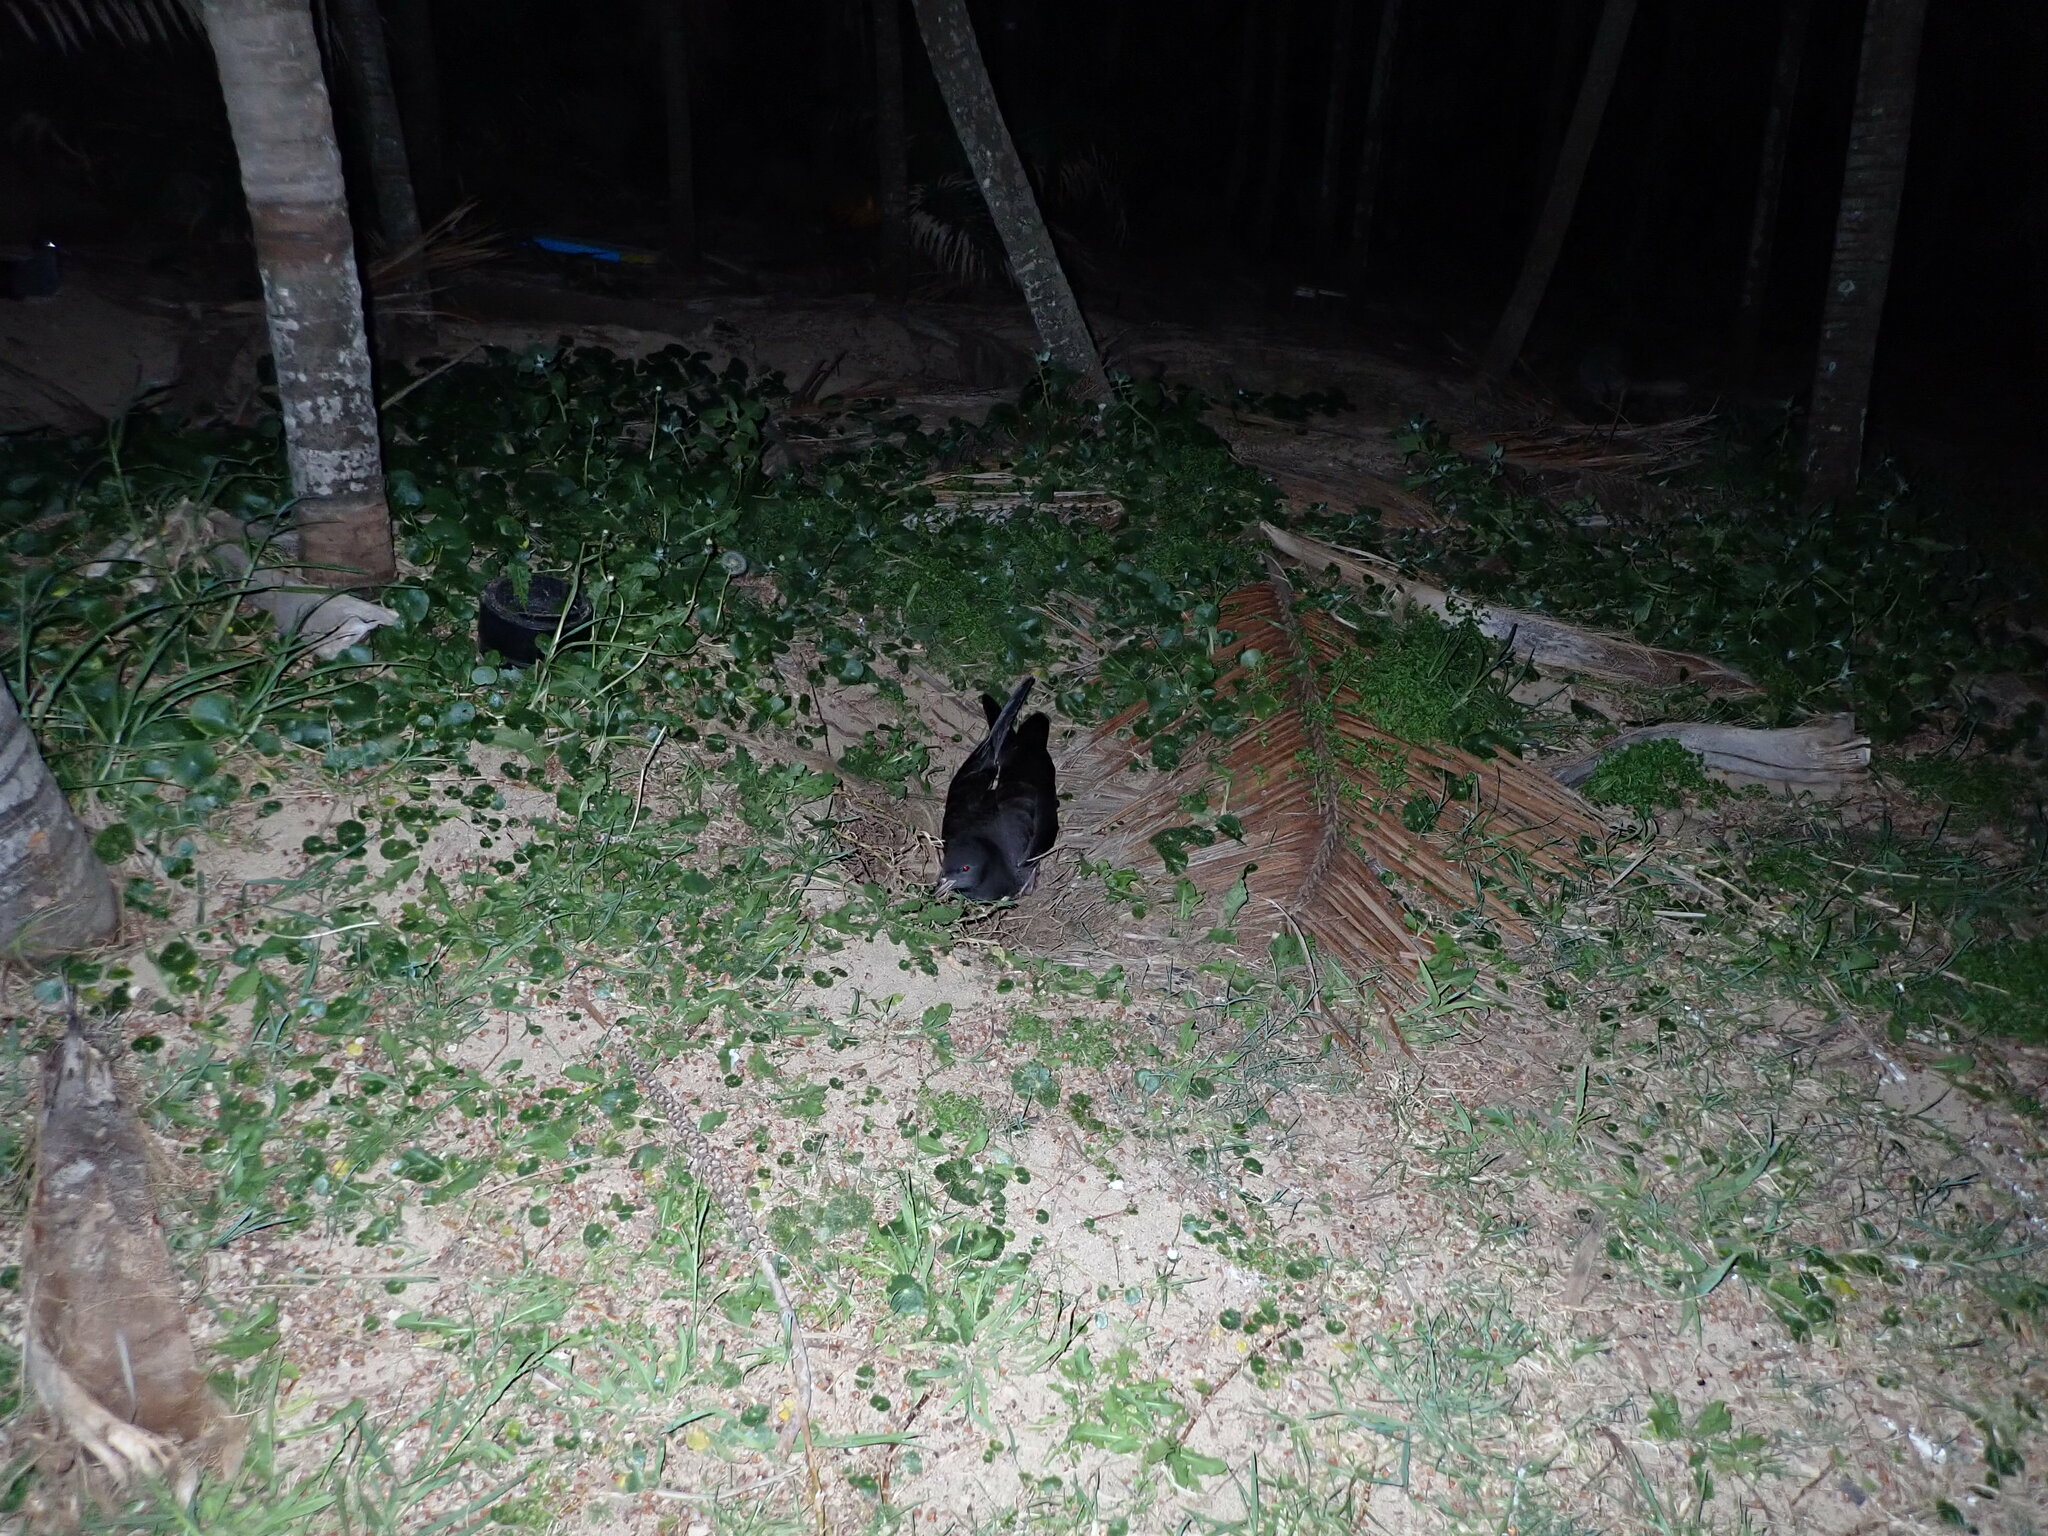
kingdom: Animalia
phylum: Chordata
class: Aves
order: Procellariiformes
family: Procellariidae
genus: Puffinus
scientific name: Puffinus carneipes
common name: Flesh-footed shearwater
